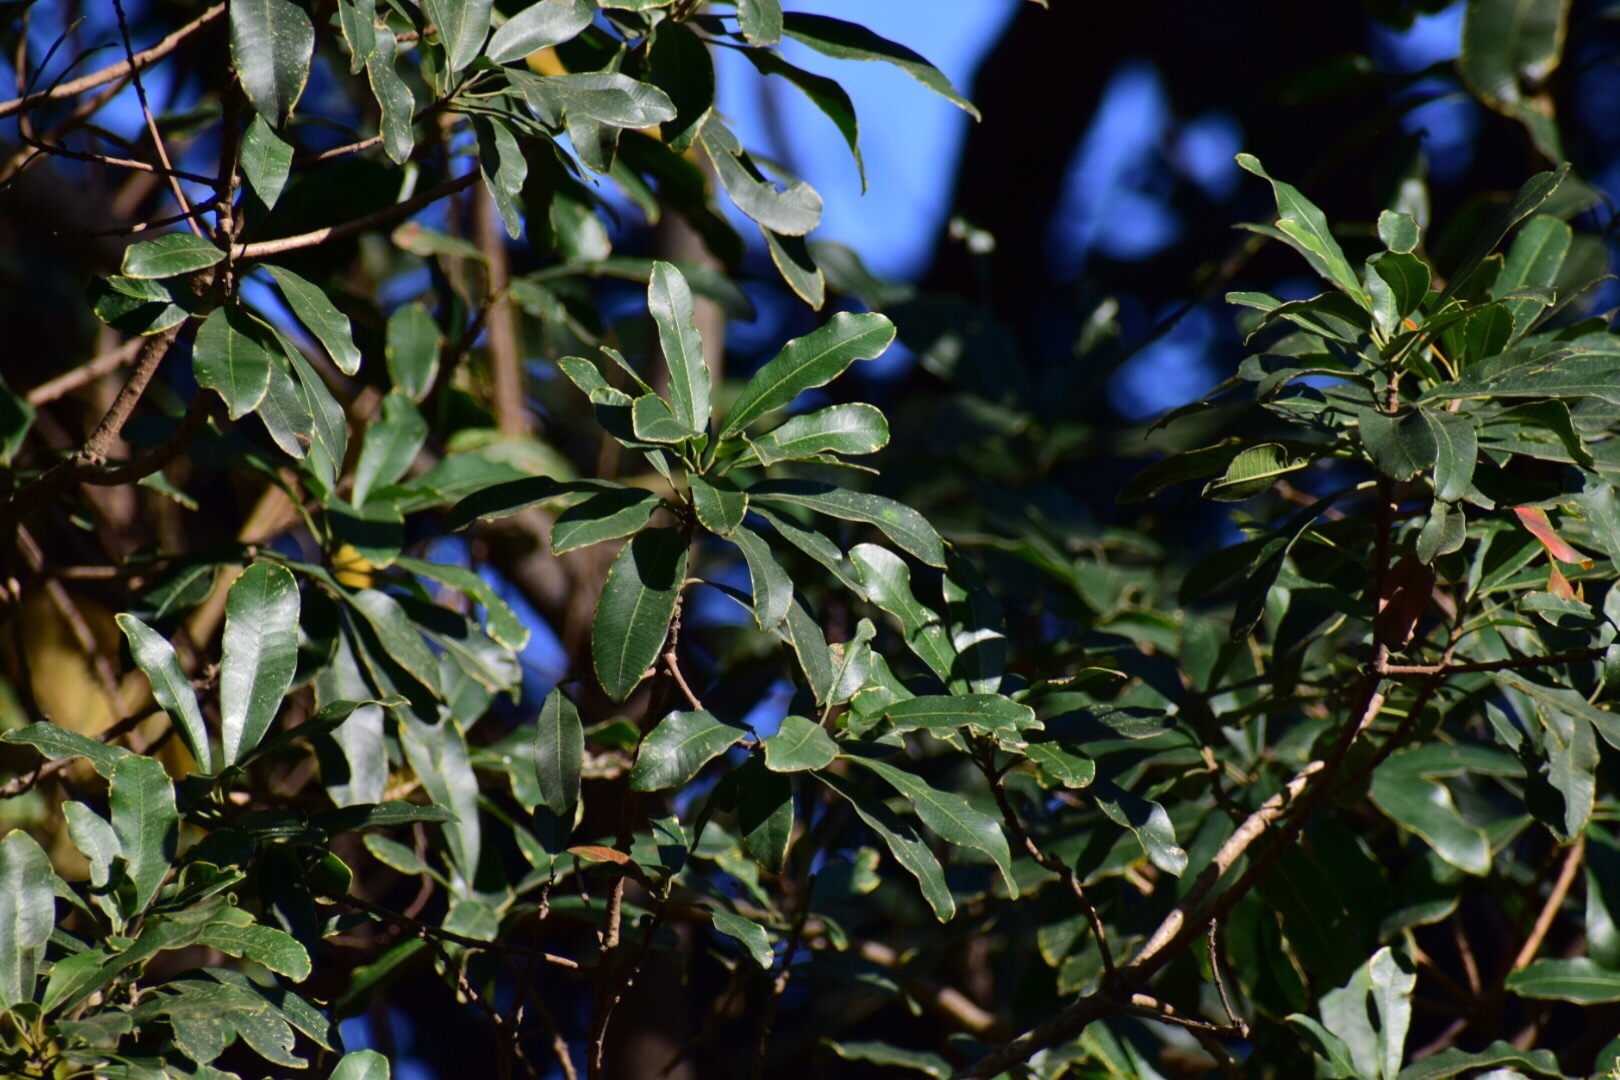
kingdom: Plantae
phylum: Tracheophyta
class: Magnoliopsida
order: Sapindales
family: Anacardiaceae
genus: Protorhus
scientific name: Protorhus longifolia
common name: Red-beech
